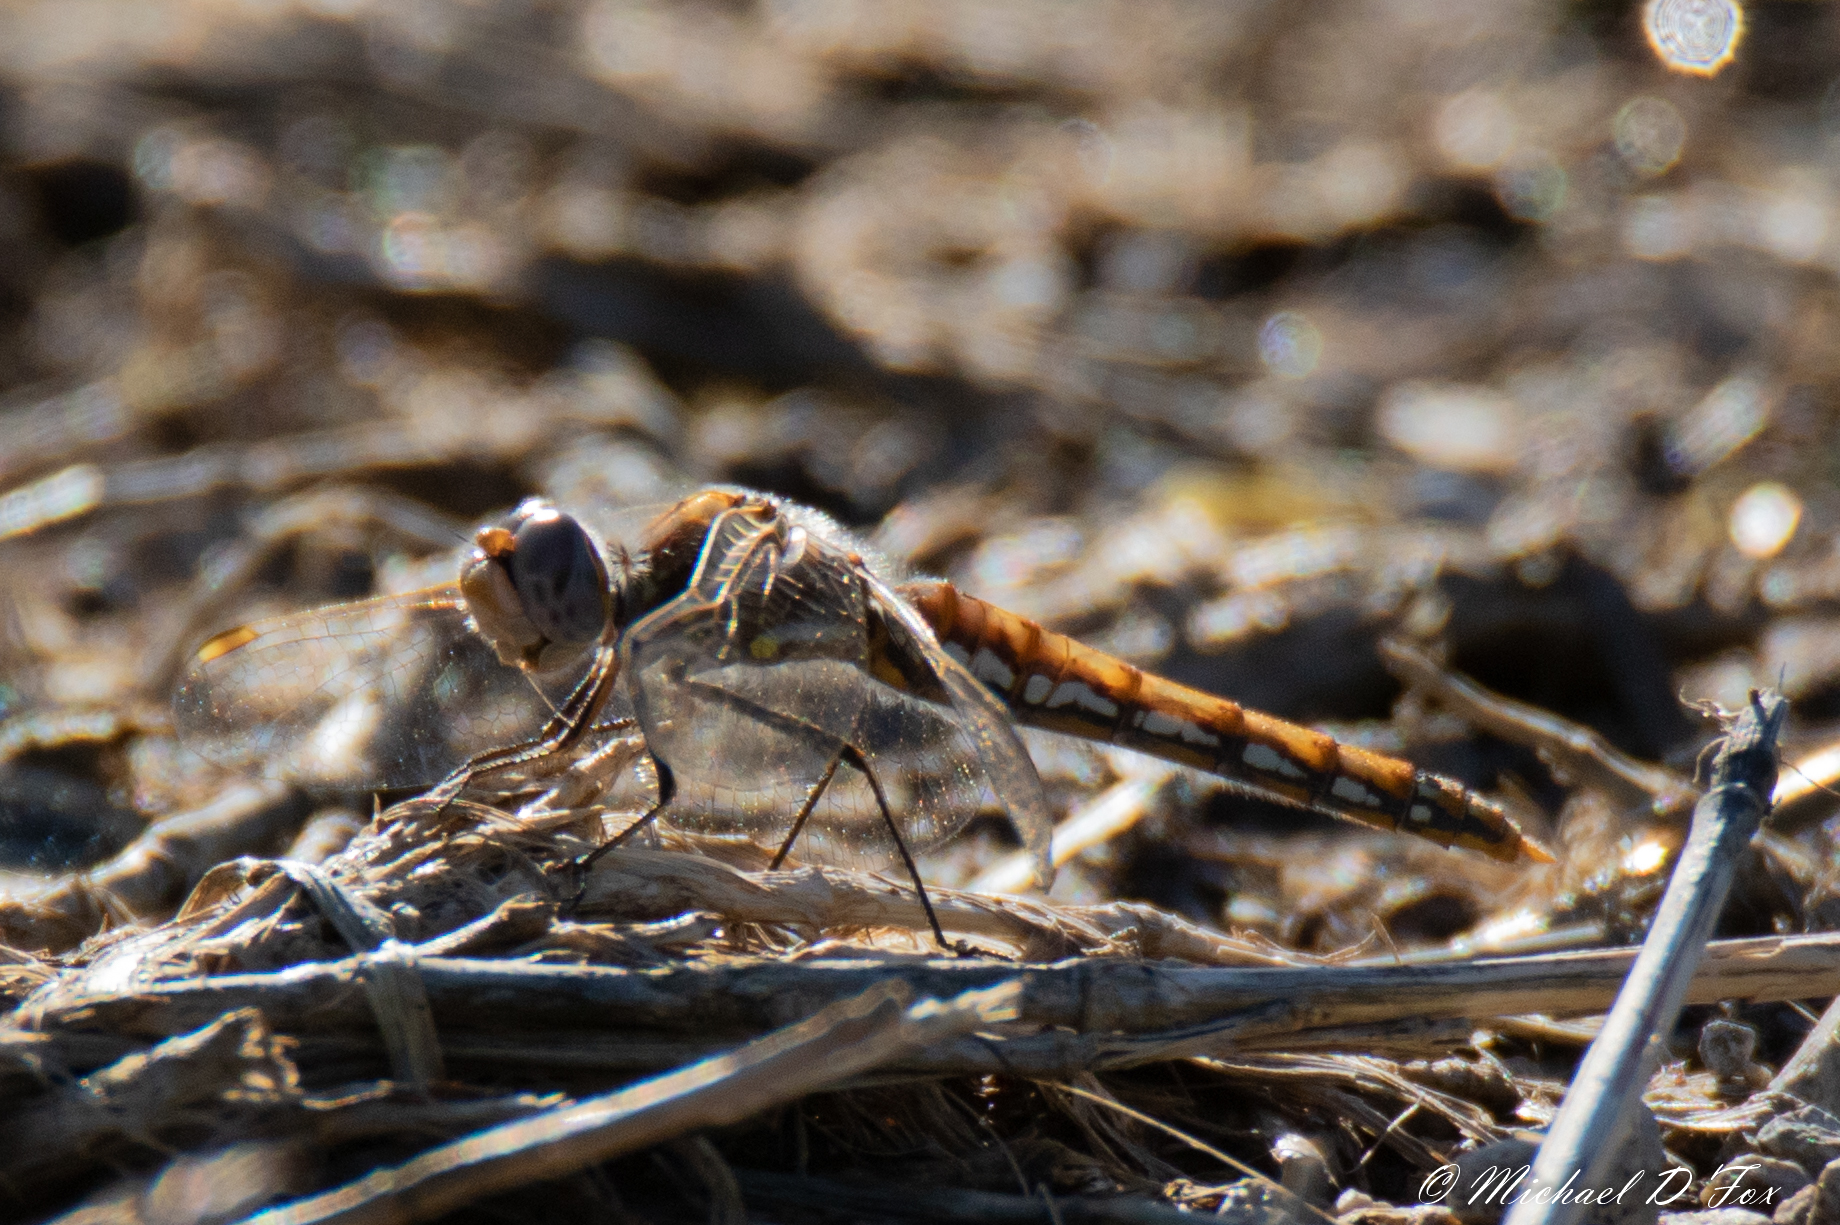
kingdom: Animalia
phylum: Arthropoda
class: Insecta
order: Odonata
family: Libellulidae
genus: Sympetrum
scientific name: Sympetrum corruptum
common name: Variegated meadowhawk
